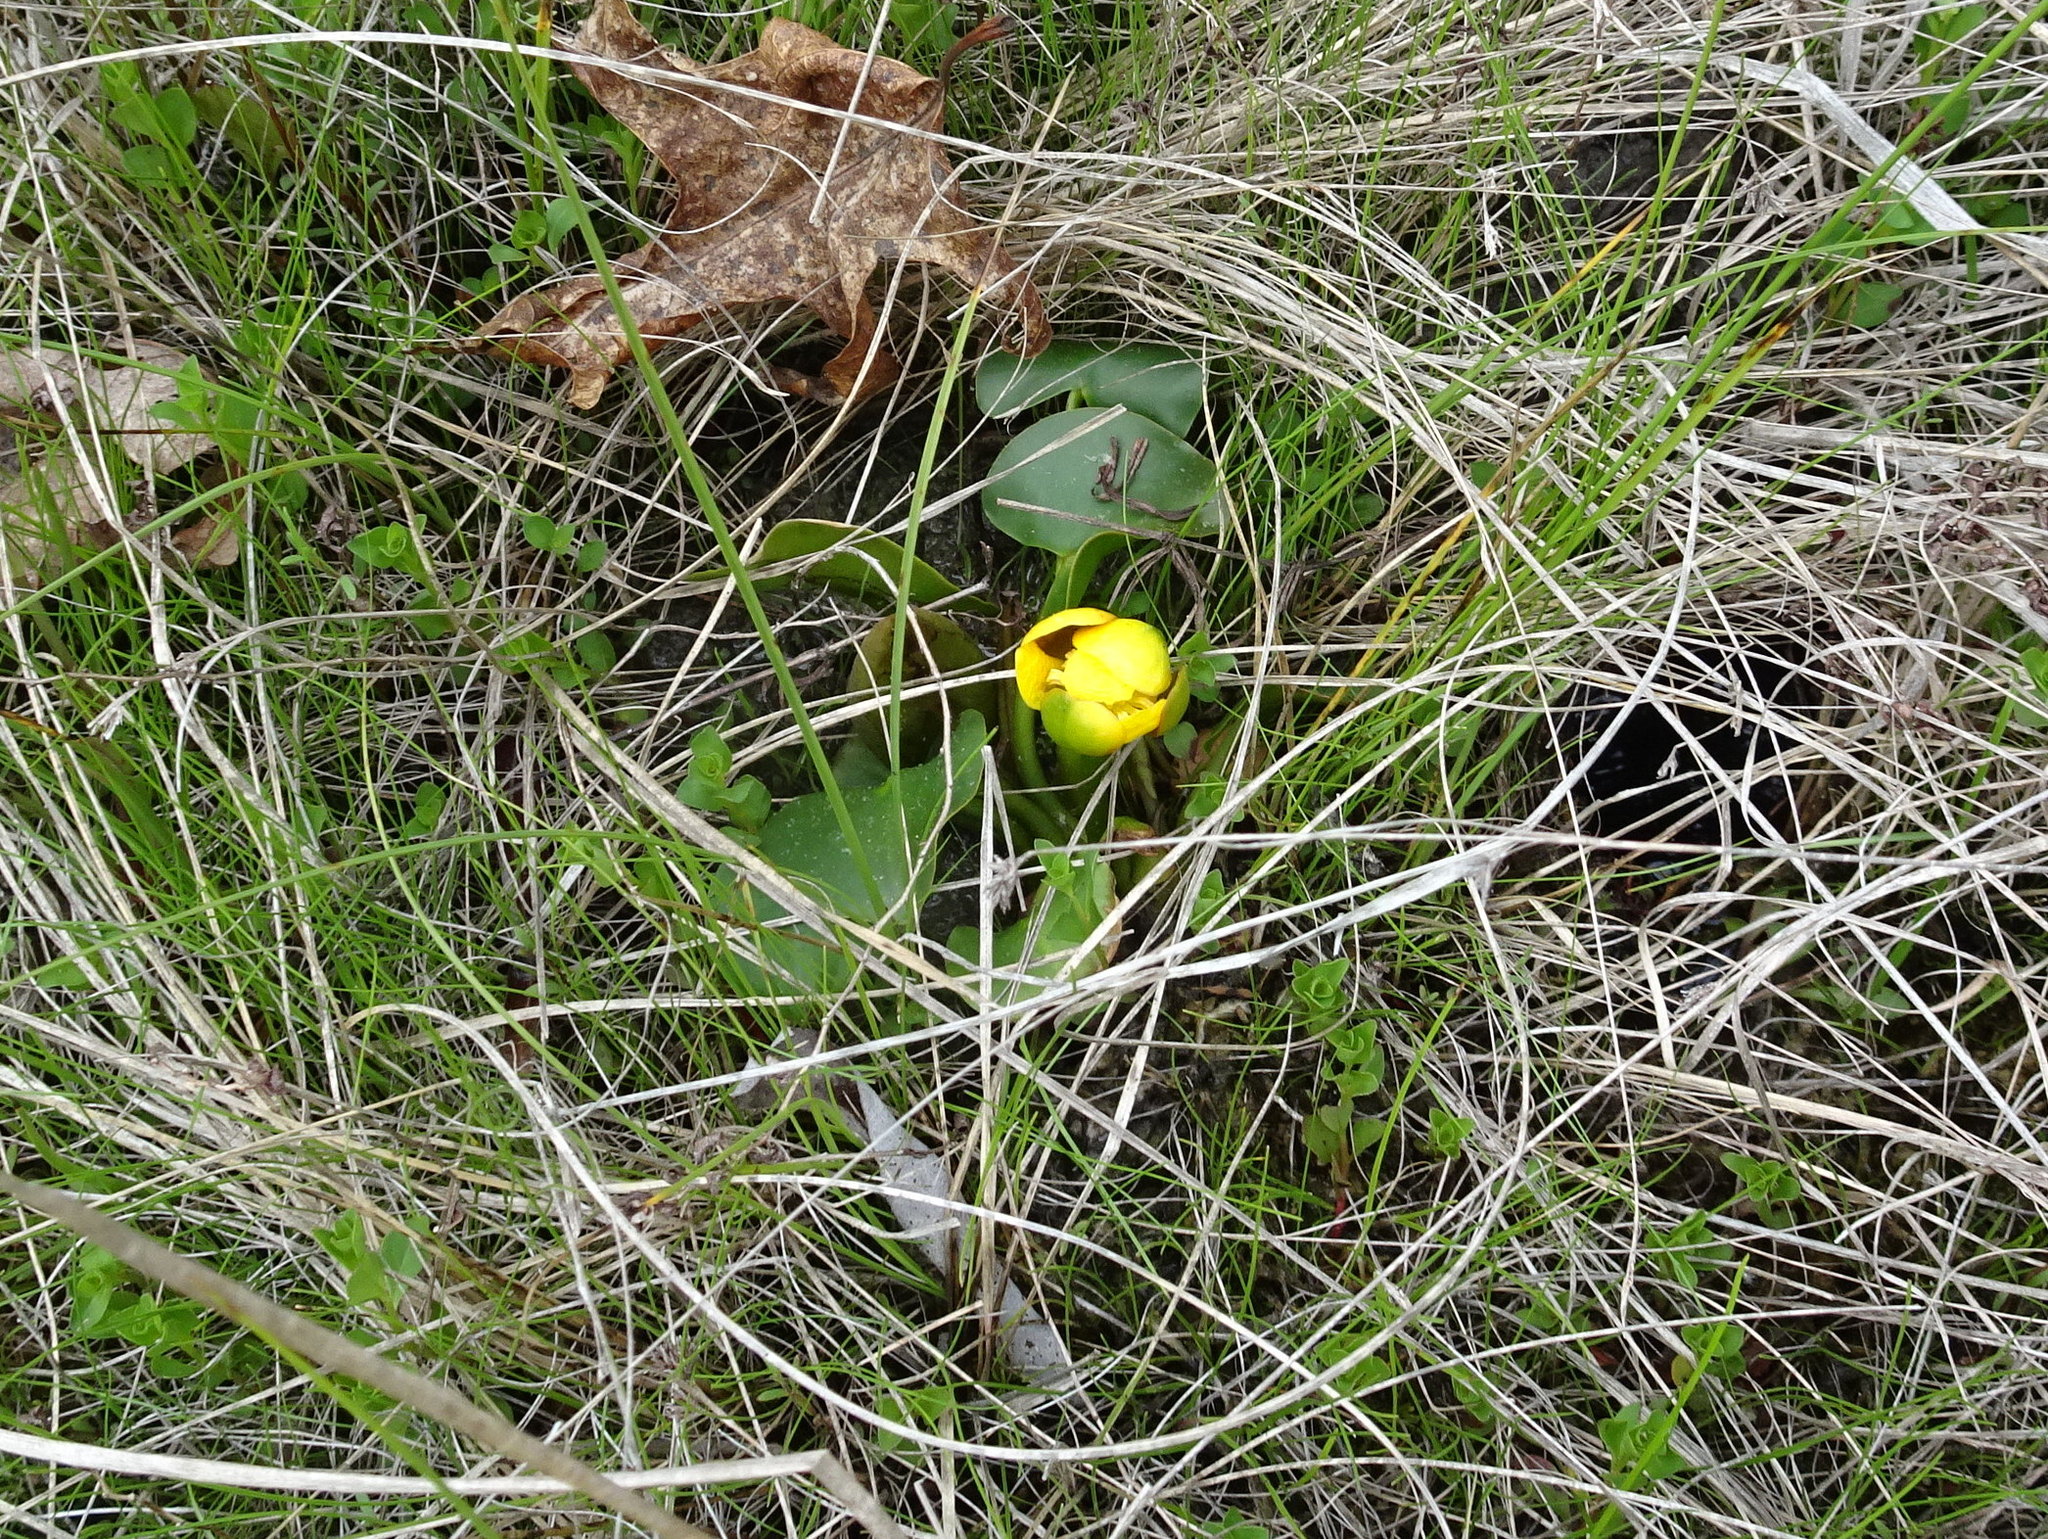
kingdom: Plantae
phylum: Tracheophyta
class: Magnoliopsida
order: Nymphaeales
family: Nymphaeaceae
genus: Nuphar
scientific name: Nuphar advena
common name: Spatter-dock
